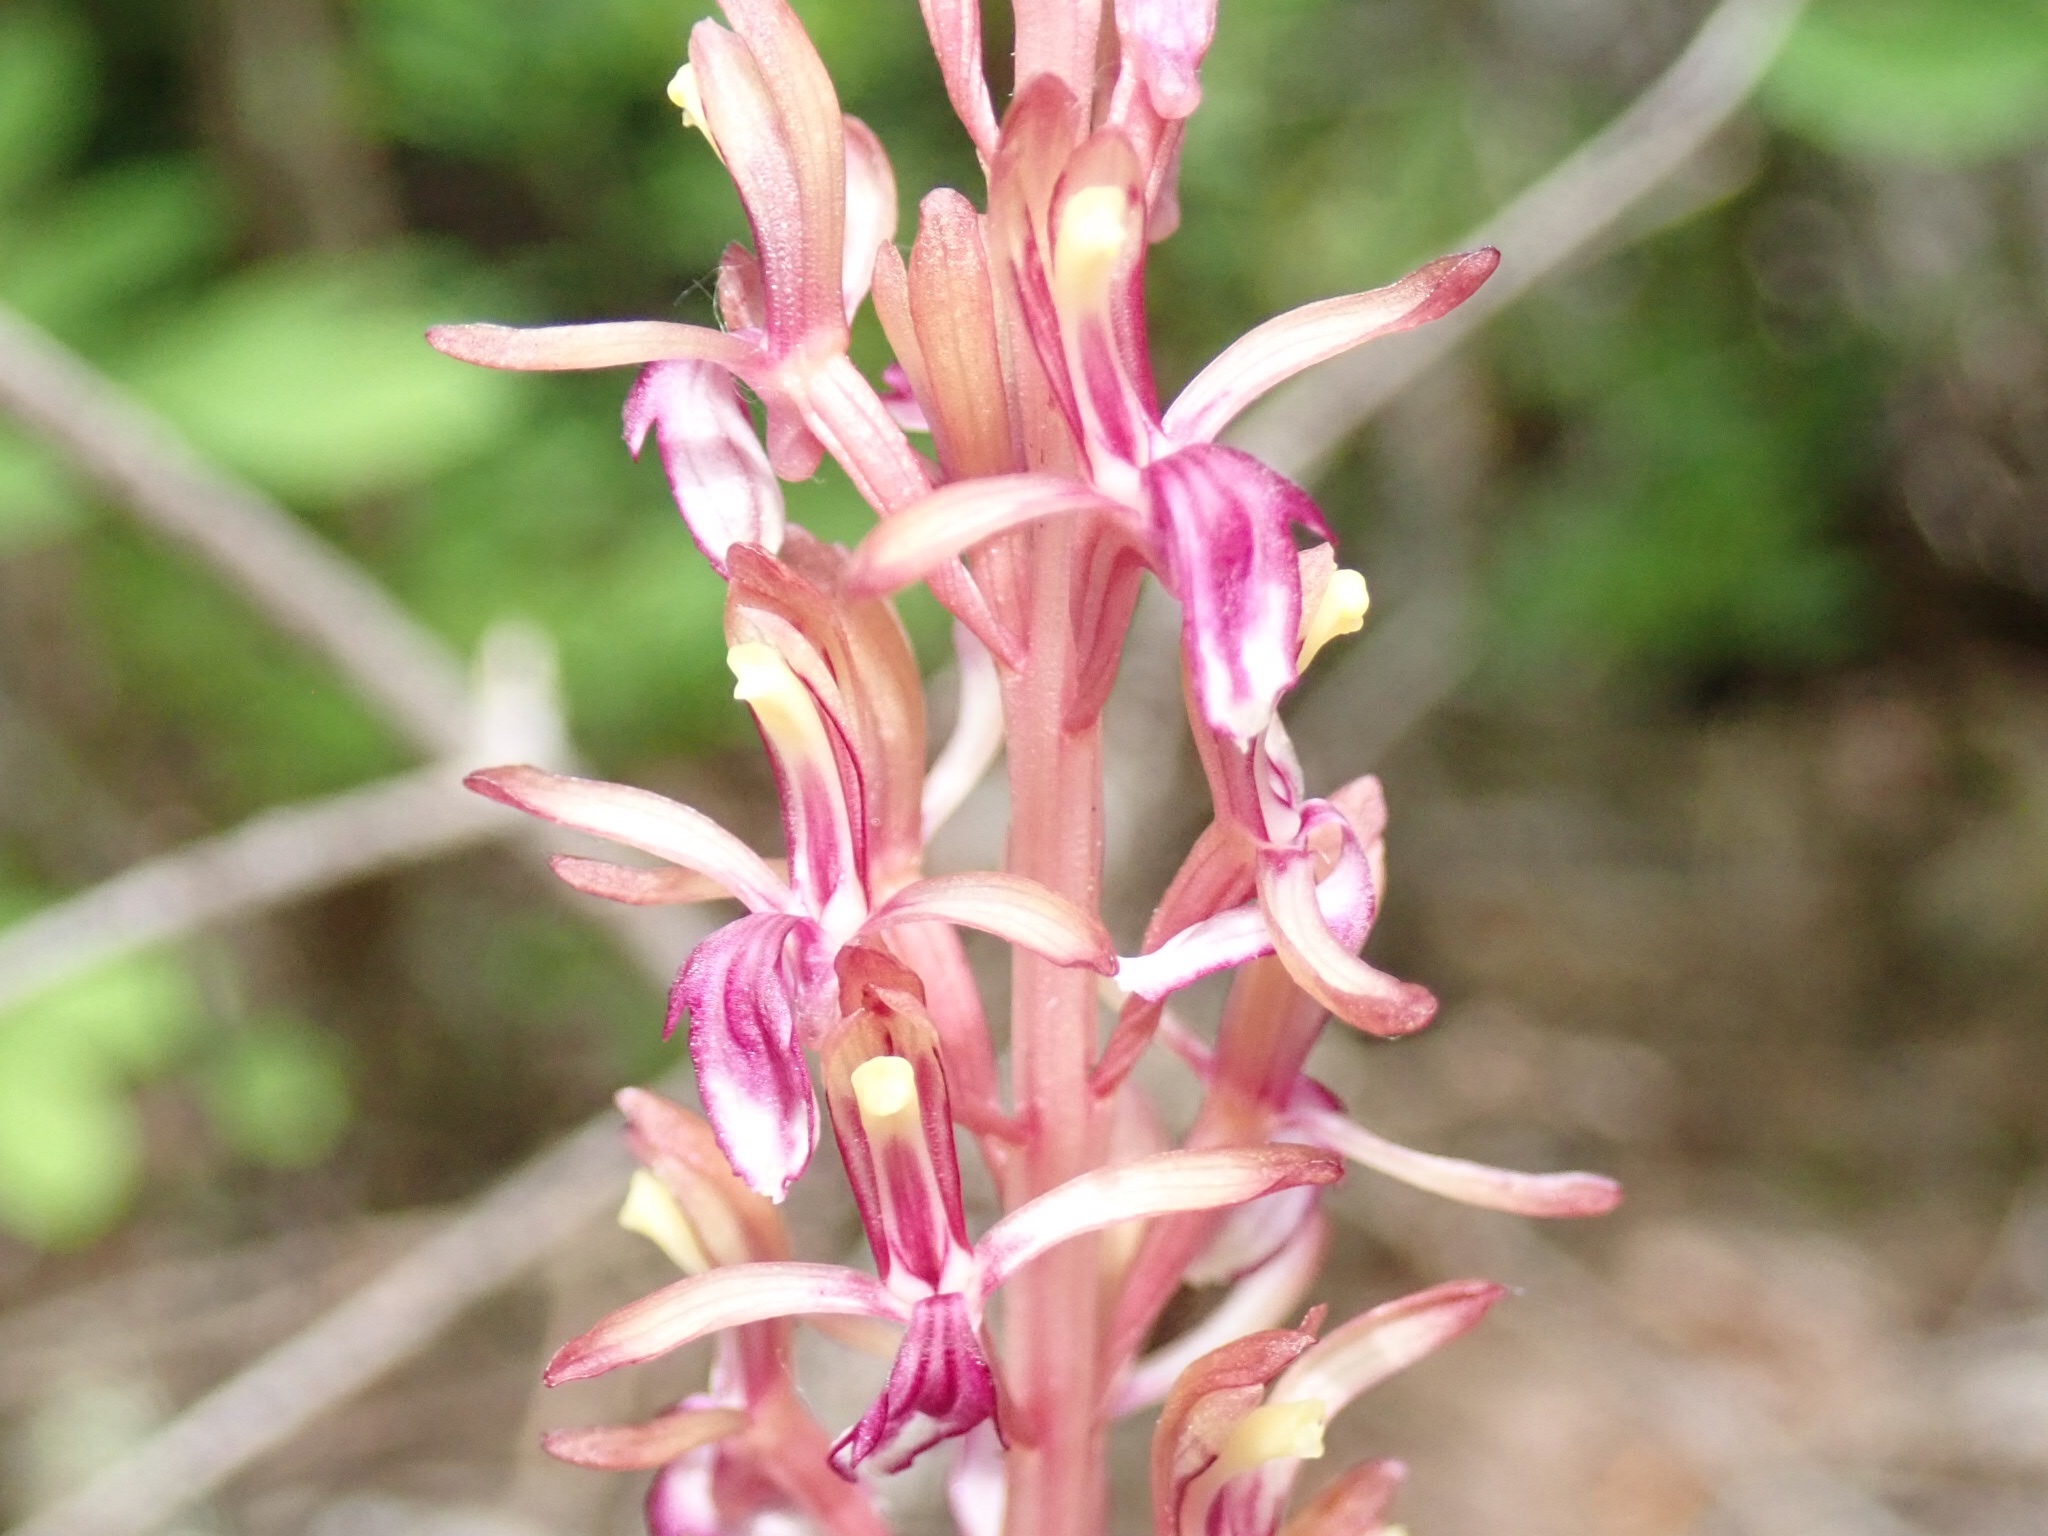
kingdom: Plantae
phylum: Tracheophyta
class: Liliopsida
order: Asparagales
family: Orchidaceae
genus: Corallorhiza
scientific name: Corallorhiza mertensiana
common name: Pacific coralroot
